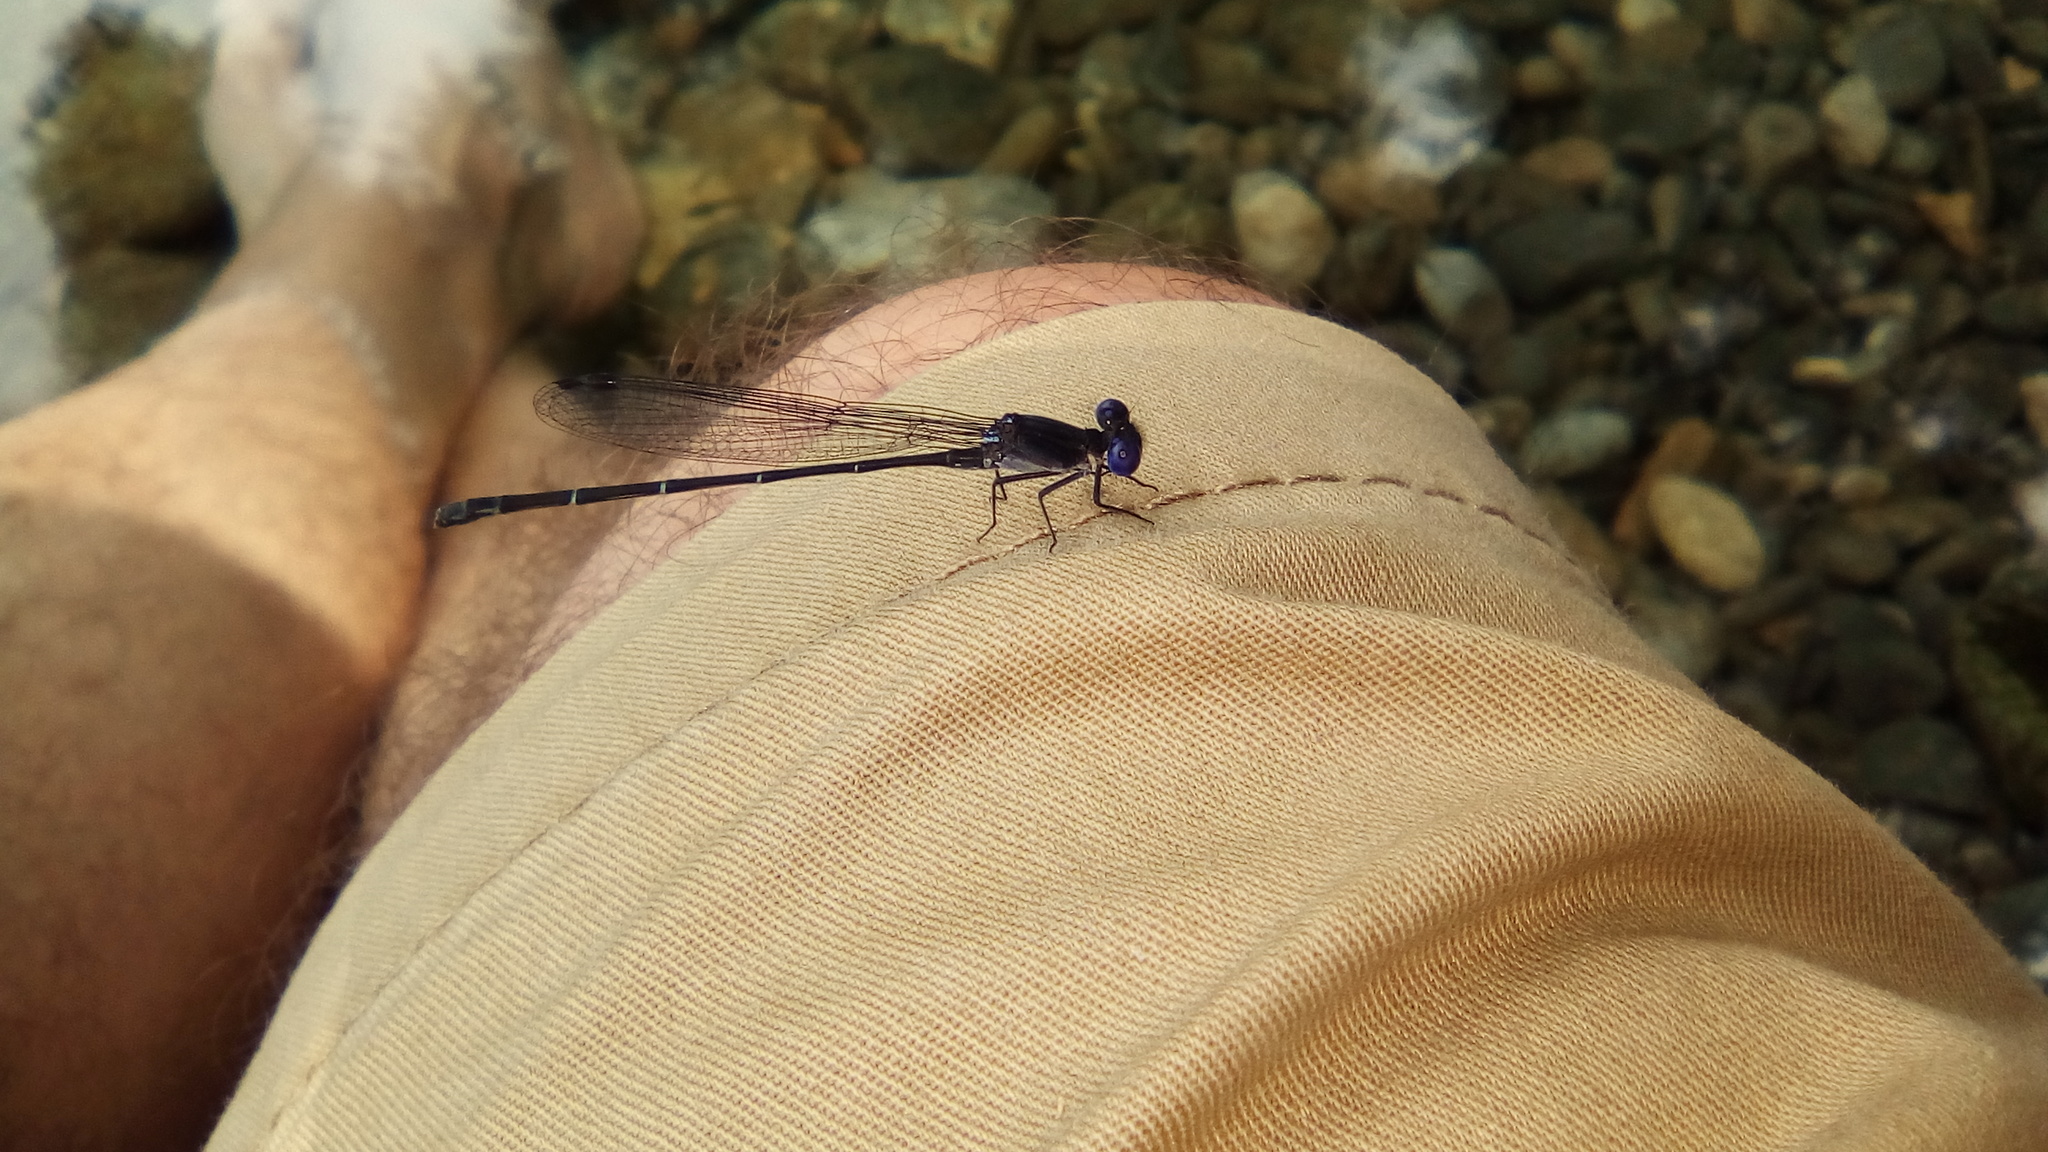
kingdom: Animalia
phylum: Arthropoda
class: Insecta
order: Odonata
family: Coenagrionidae
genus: Argia
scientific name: Argia translata
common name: Dusky dancer
